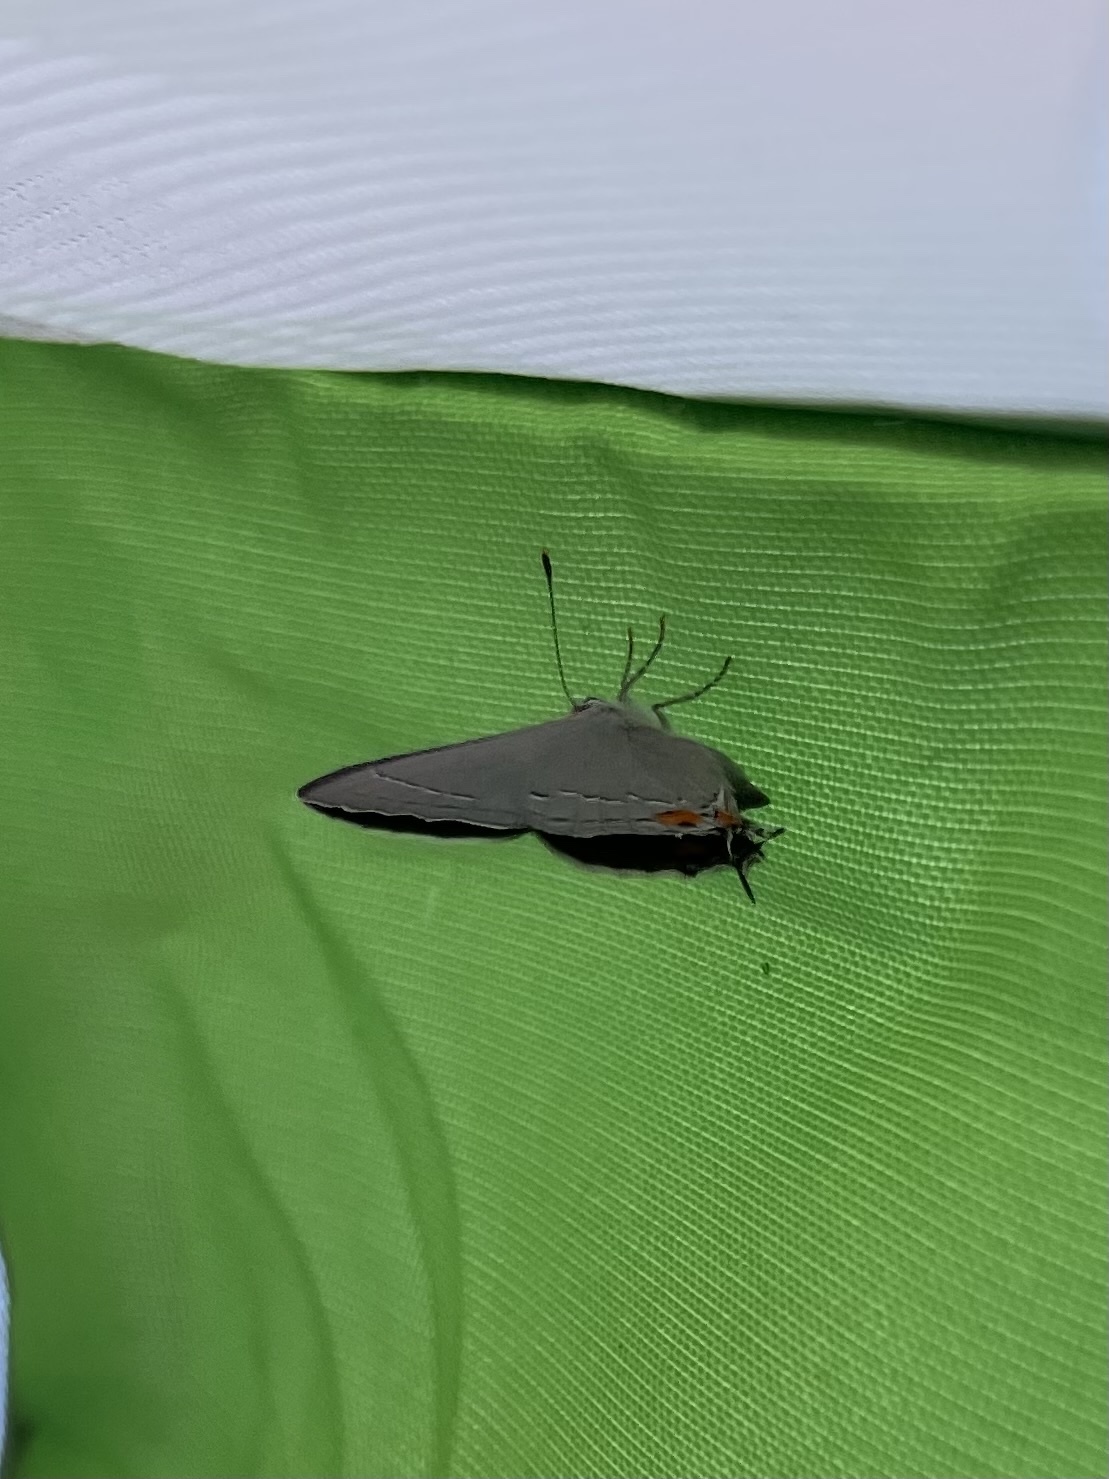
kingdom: Animalia
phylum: Arthropoda
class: Insecta
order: Lepidoptera
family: Lycaenidae
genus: Strymon
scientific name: Strymon melinus
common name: Gray hairstreak
